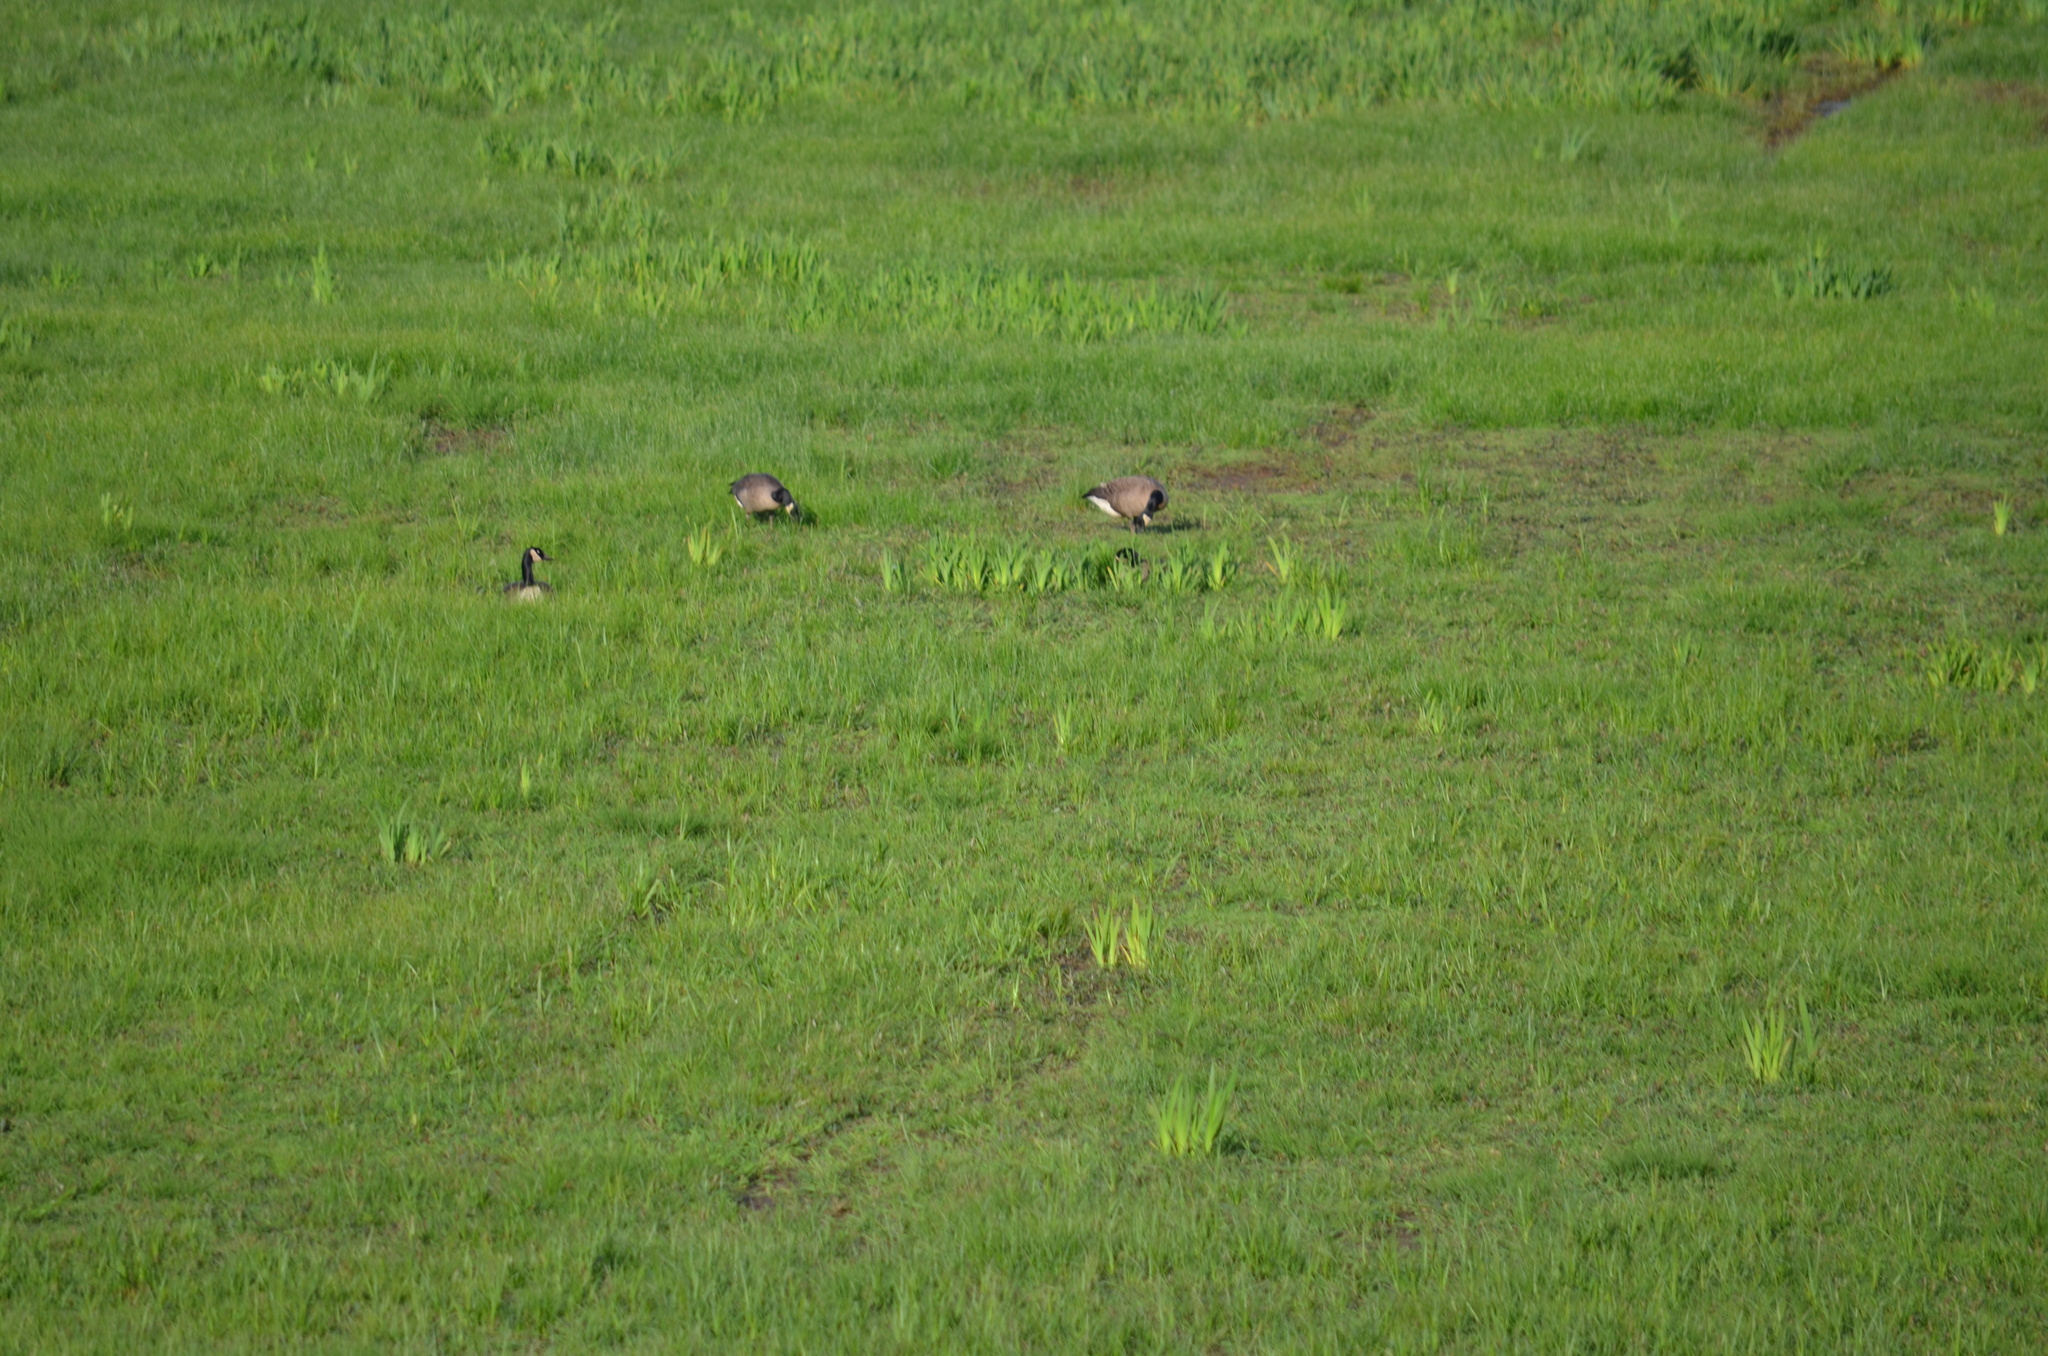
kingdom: Animalia
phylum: Chordata
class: Aves
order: Anseriformes
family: Anatidae
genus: Branta
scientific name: Branta canadensis
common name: Canada goose
